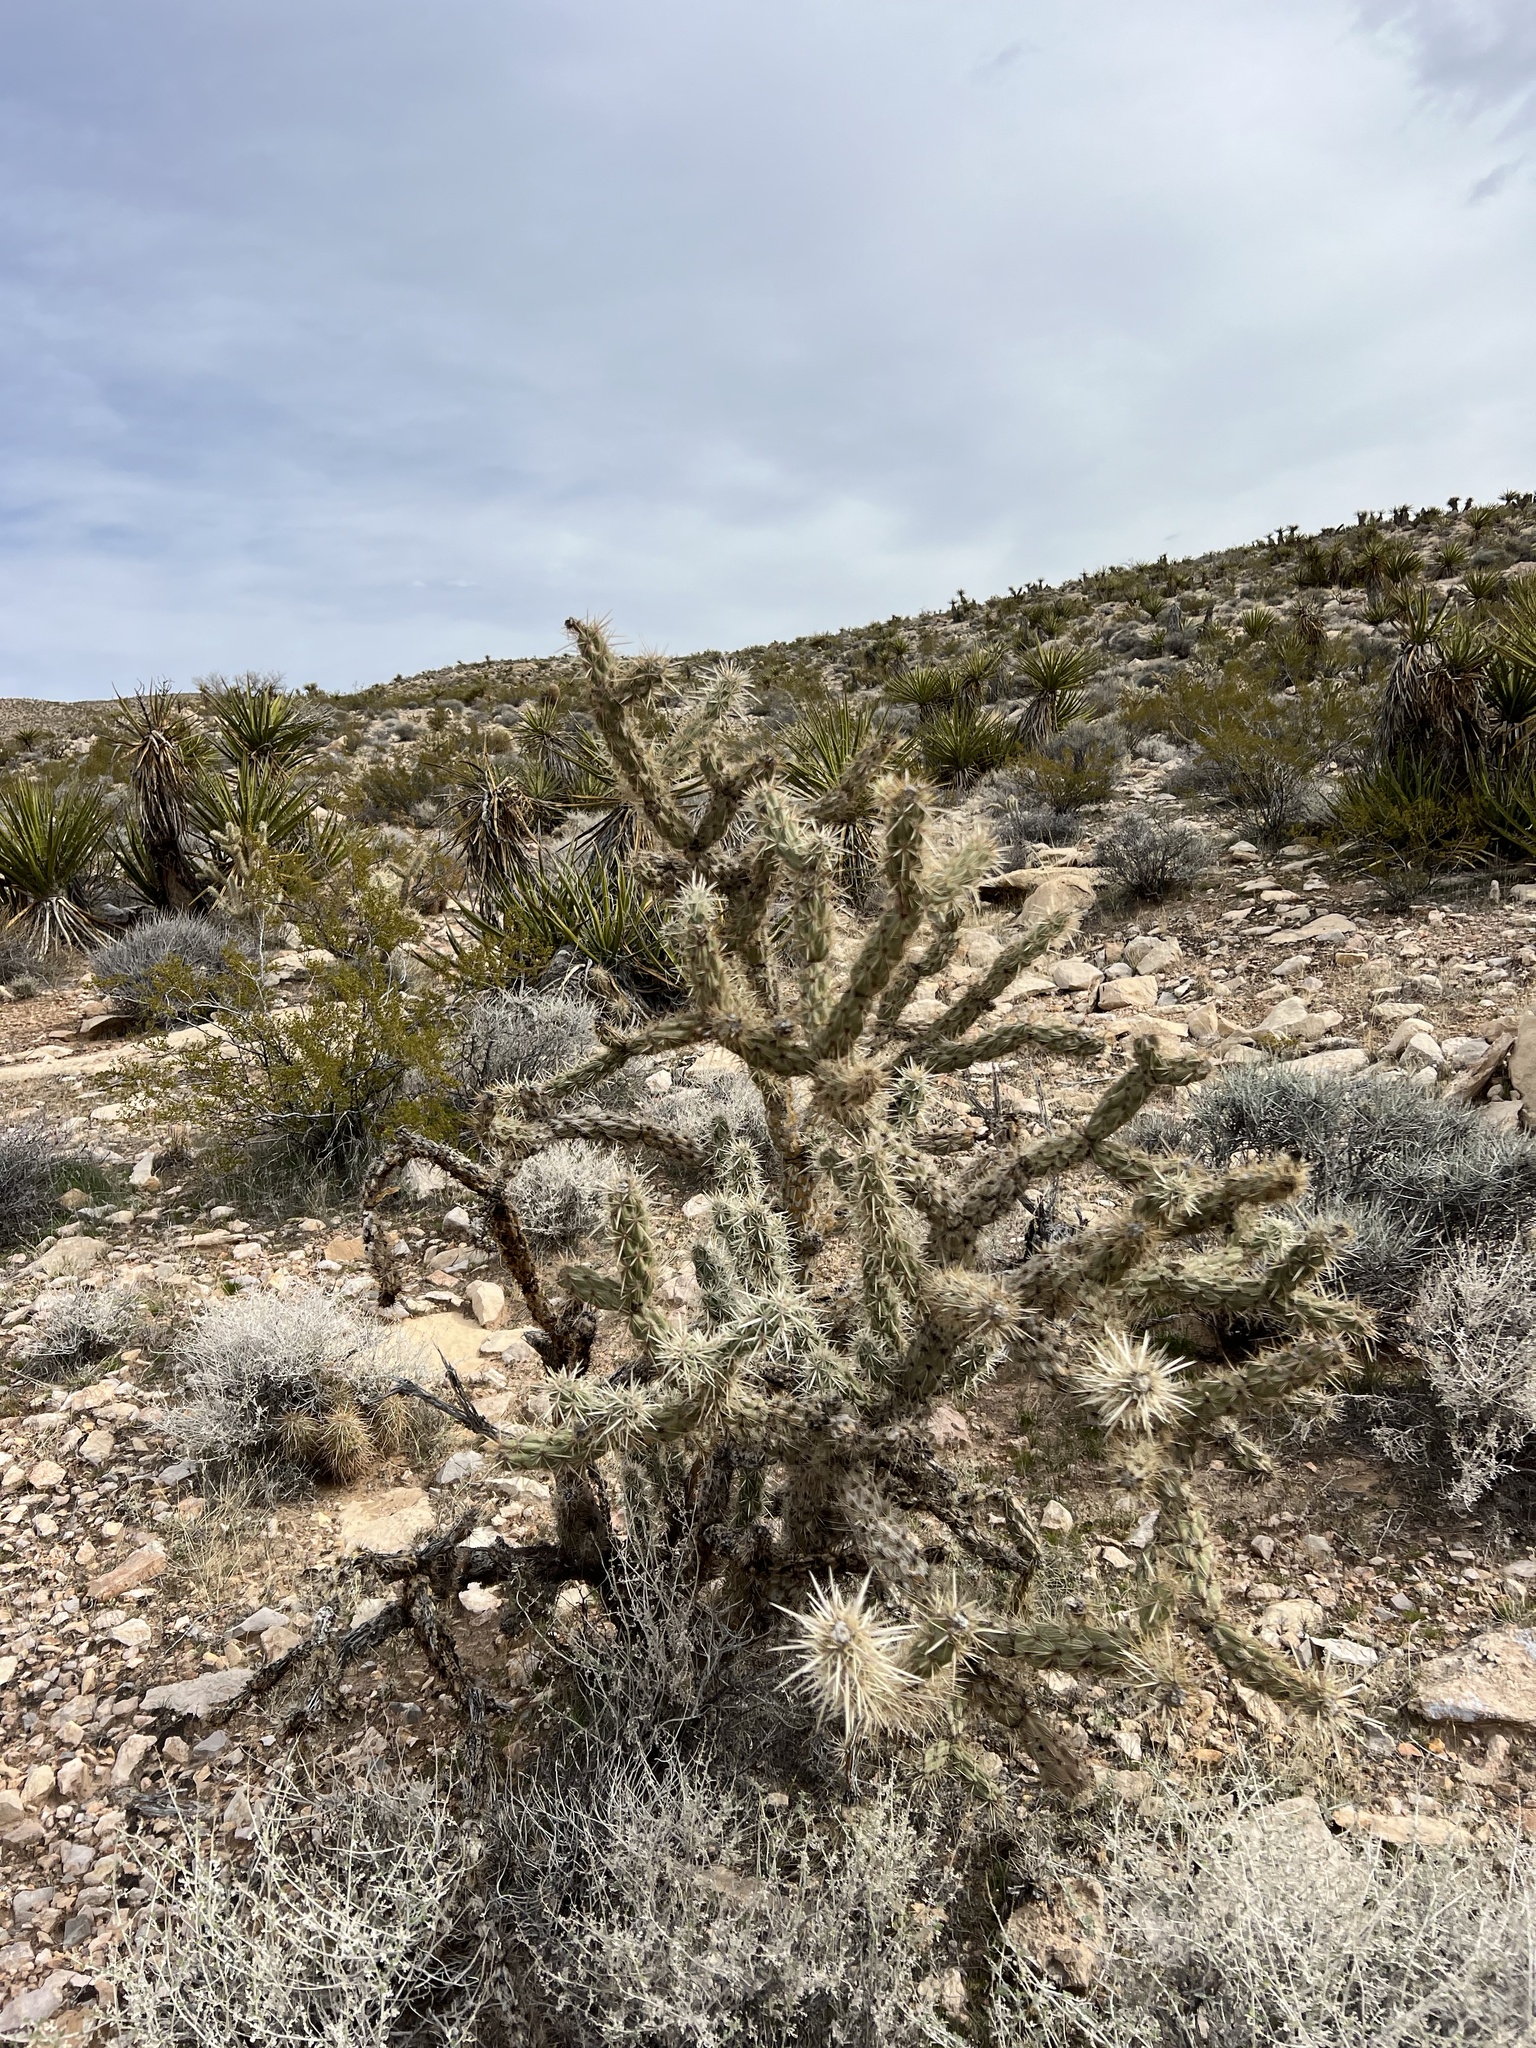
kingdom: Plantae
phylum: Tracheophyta
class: Magnoliopsida
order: Caryophyllales
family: Cactaceae
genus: Cylindropuntia
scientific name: Cylindropuntia acanthocarpa
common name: Buckhorn cholla
